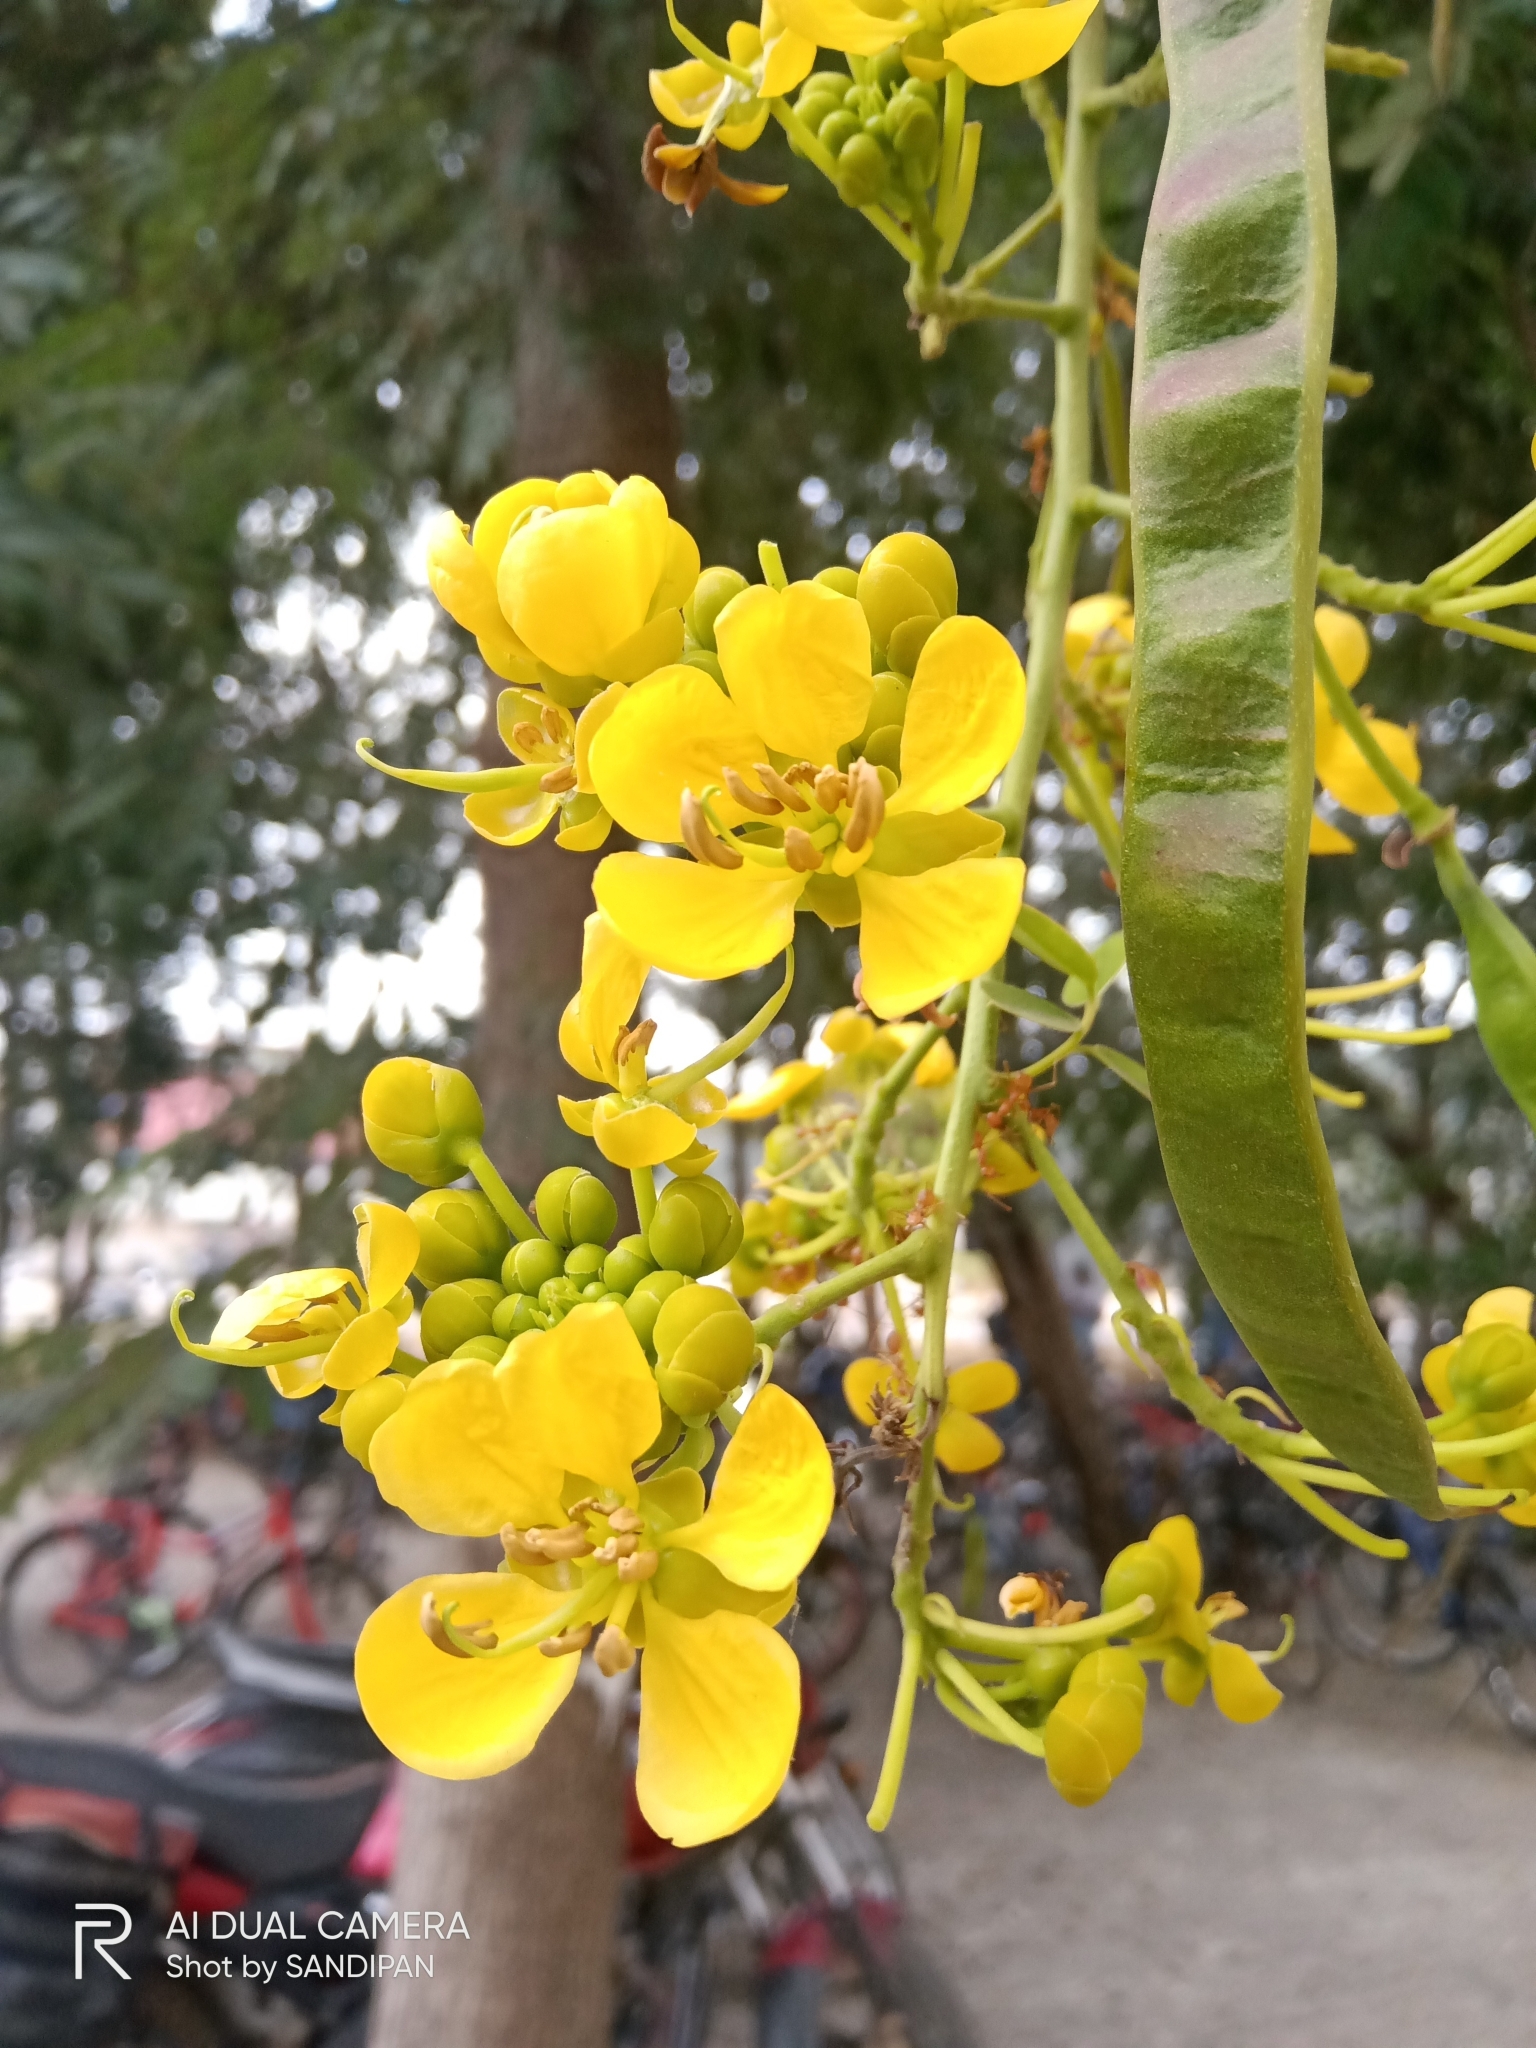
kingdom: Plantae
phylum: Tracheophyta
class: Magnoliopsida
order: Fabales
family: Fabaceae
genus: Senna
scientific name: Senna siamea
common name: Siamese cassia
